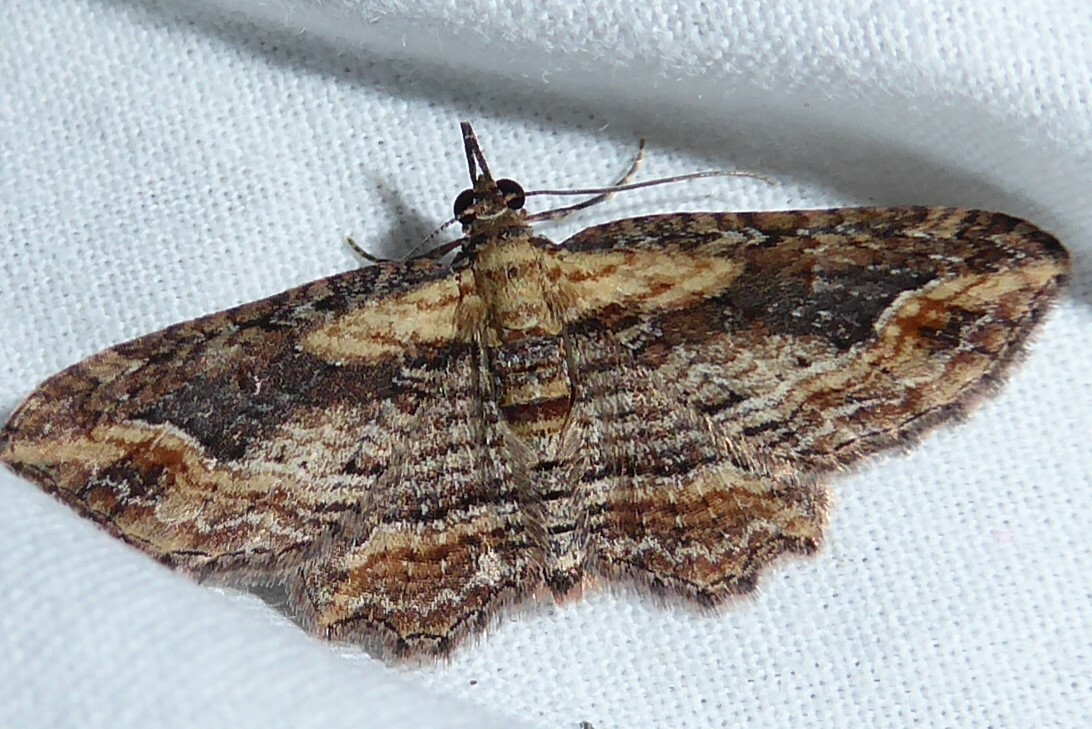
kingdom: Animalia
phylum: Arthropoda
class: Insecta
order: Lepidoptera
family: Geometridae
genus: Chloroclystis
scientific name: Chloroclystis filata
